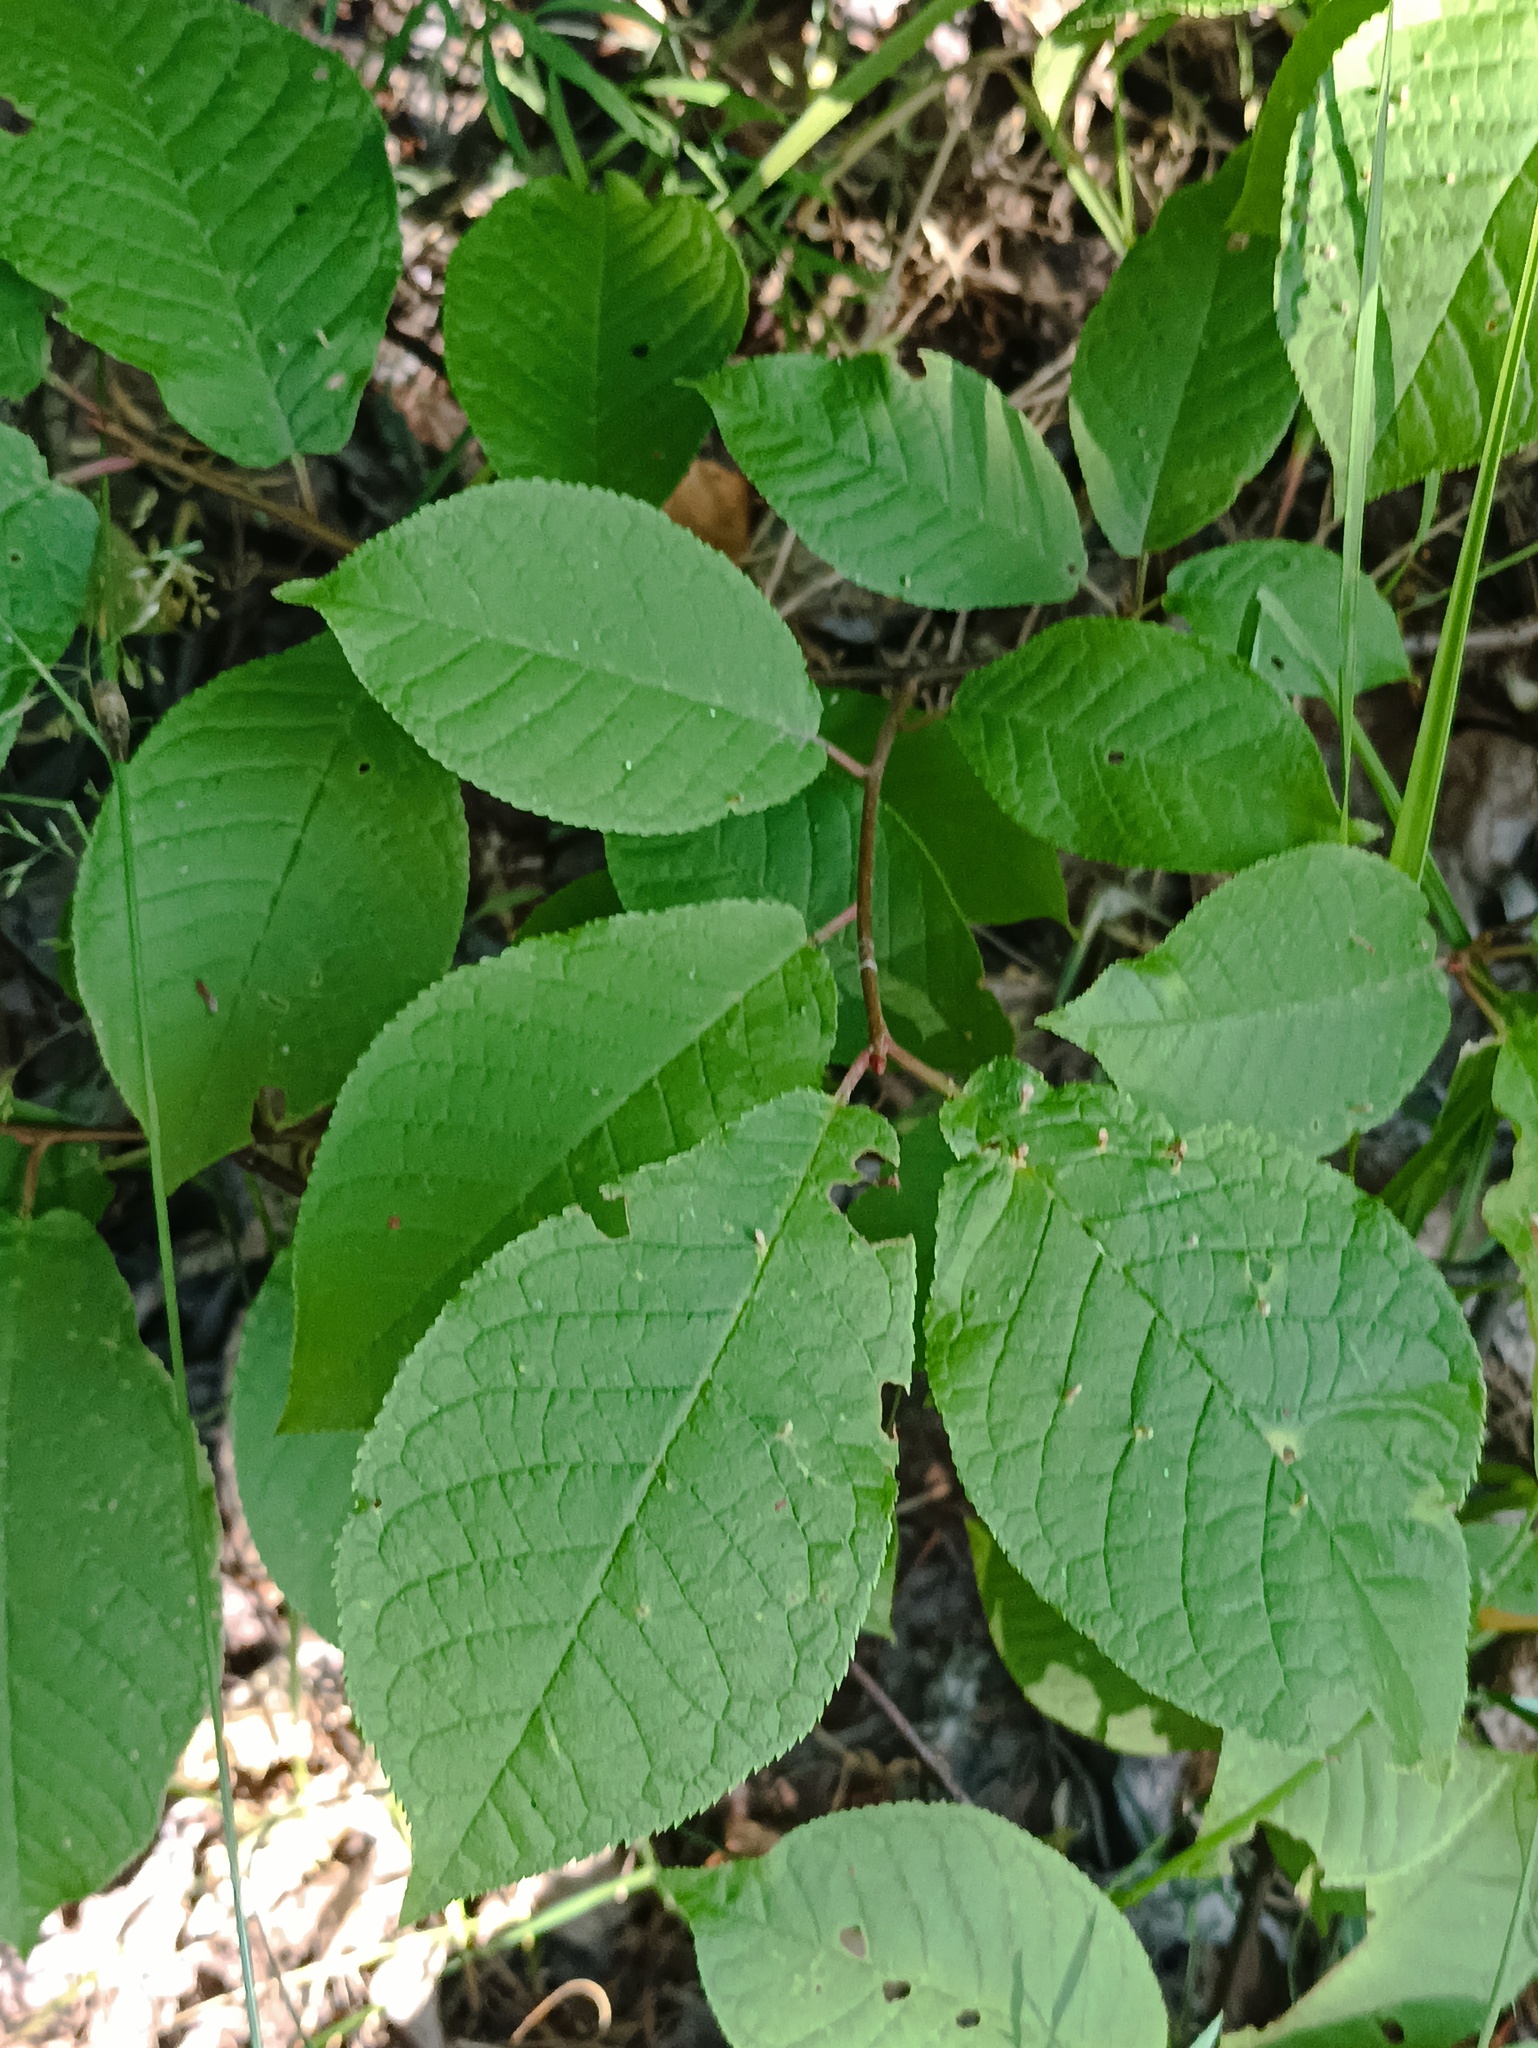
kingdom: Plantae
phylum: Tracheophyta
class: Magnoliopsida
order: Rosales
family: Rosaceae
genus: Prunus
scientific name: Prunus padus
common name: Bird cherry
